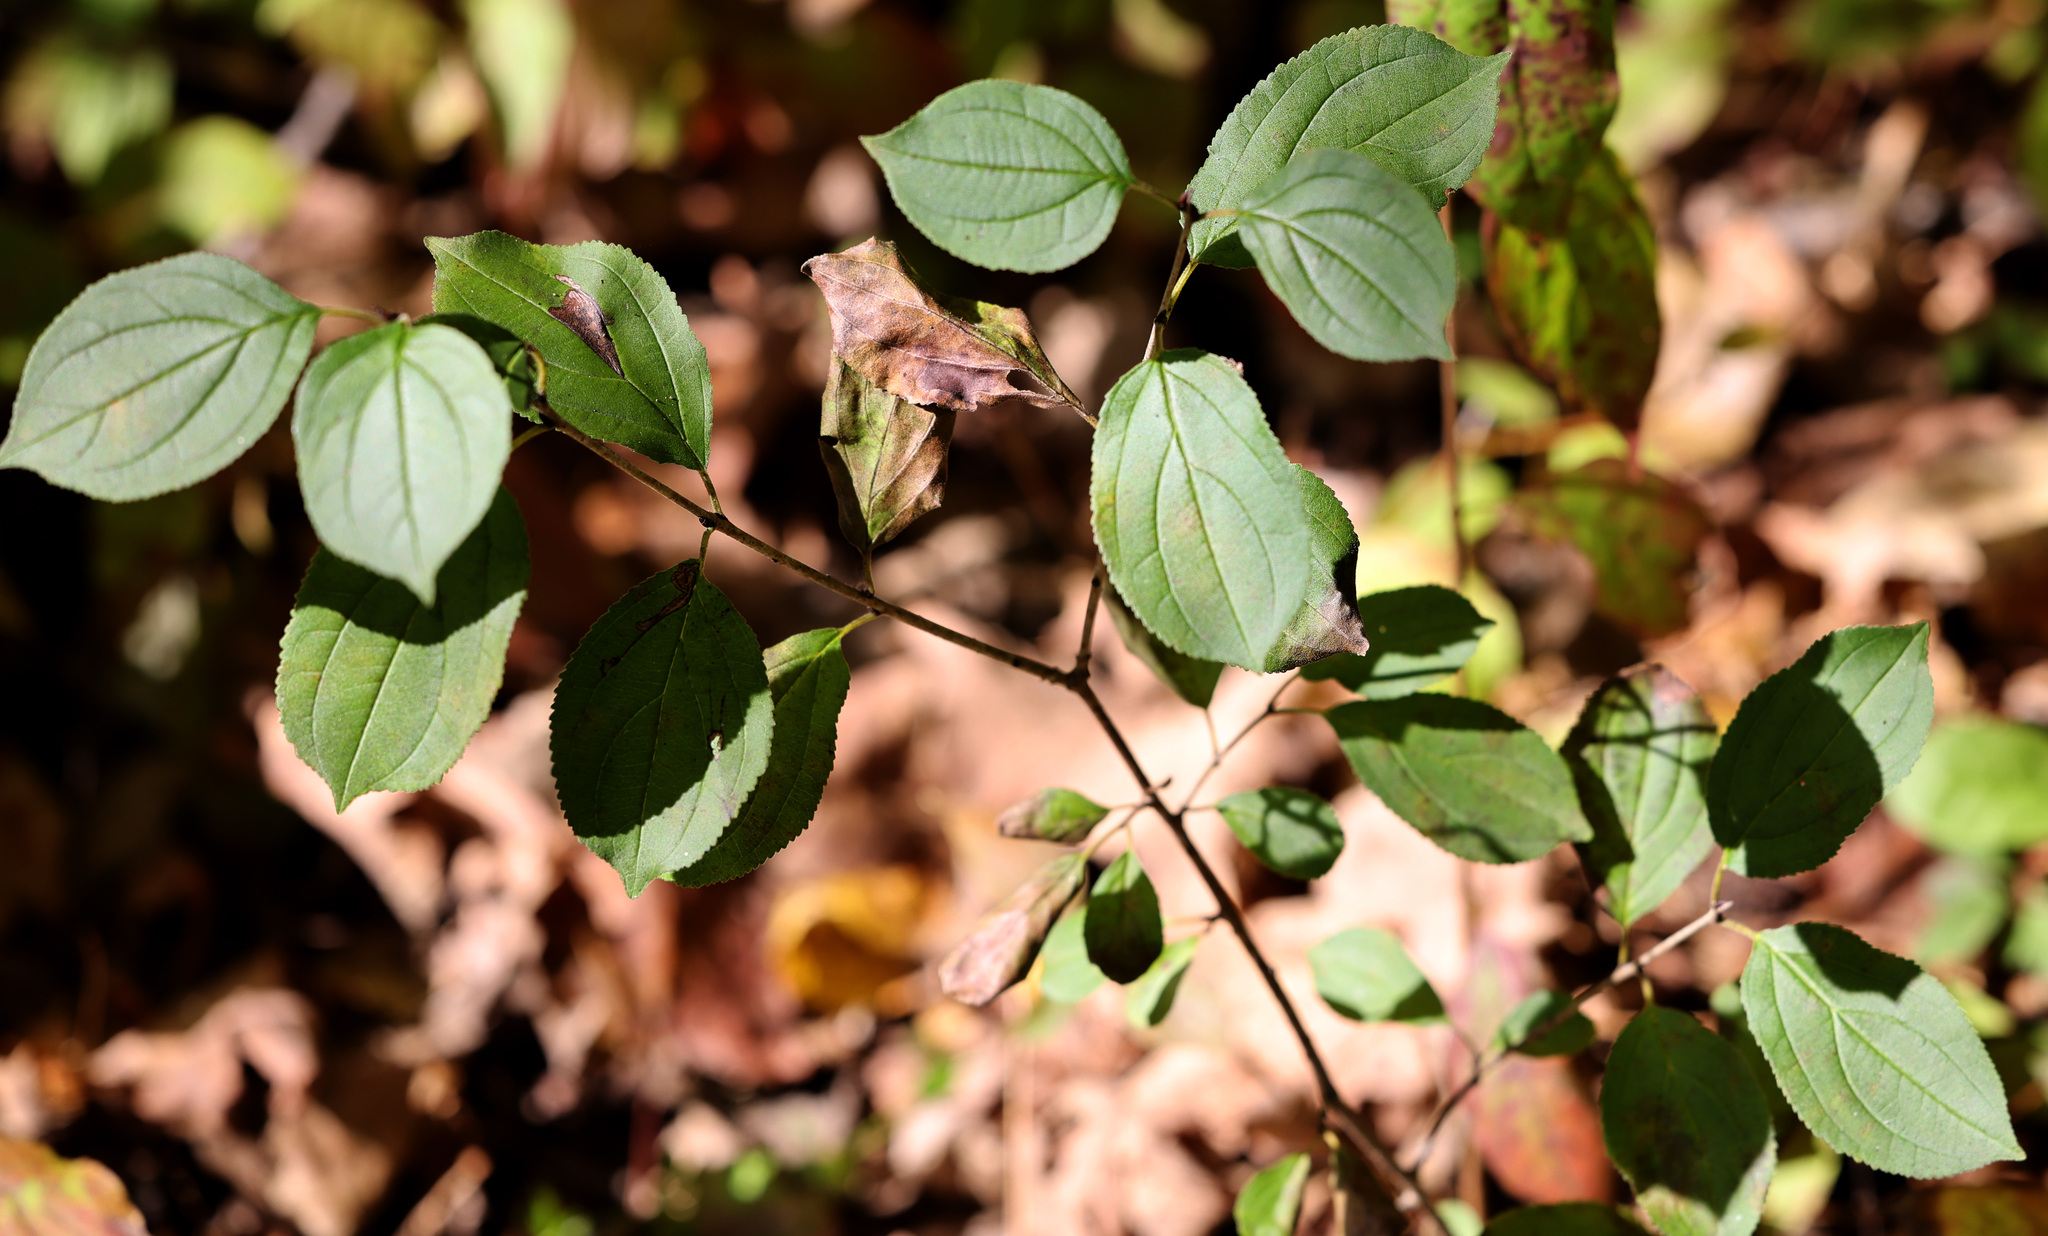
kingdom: Plantae
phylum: Tracheophyta
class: Magnoliopsida
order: Rosales
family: Rhamnaceae
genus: Rhamnus
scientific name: Rhamnus cathartica
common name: Common buckthorn
